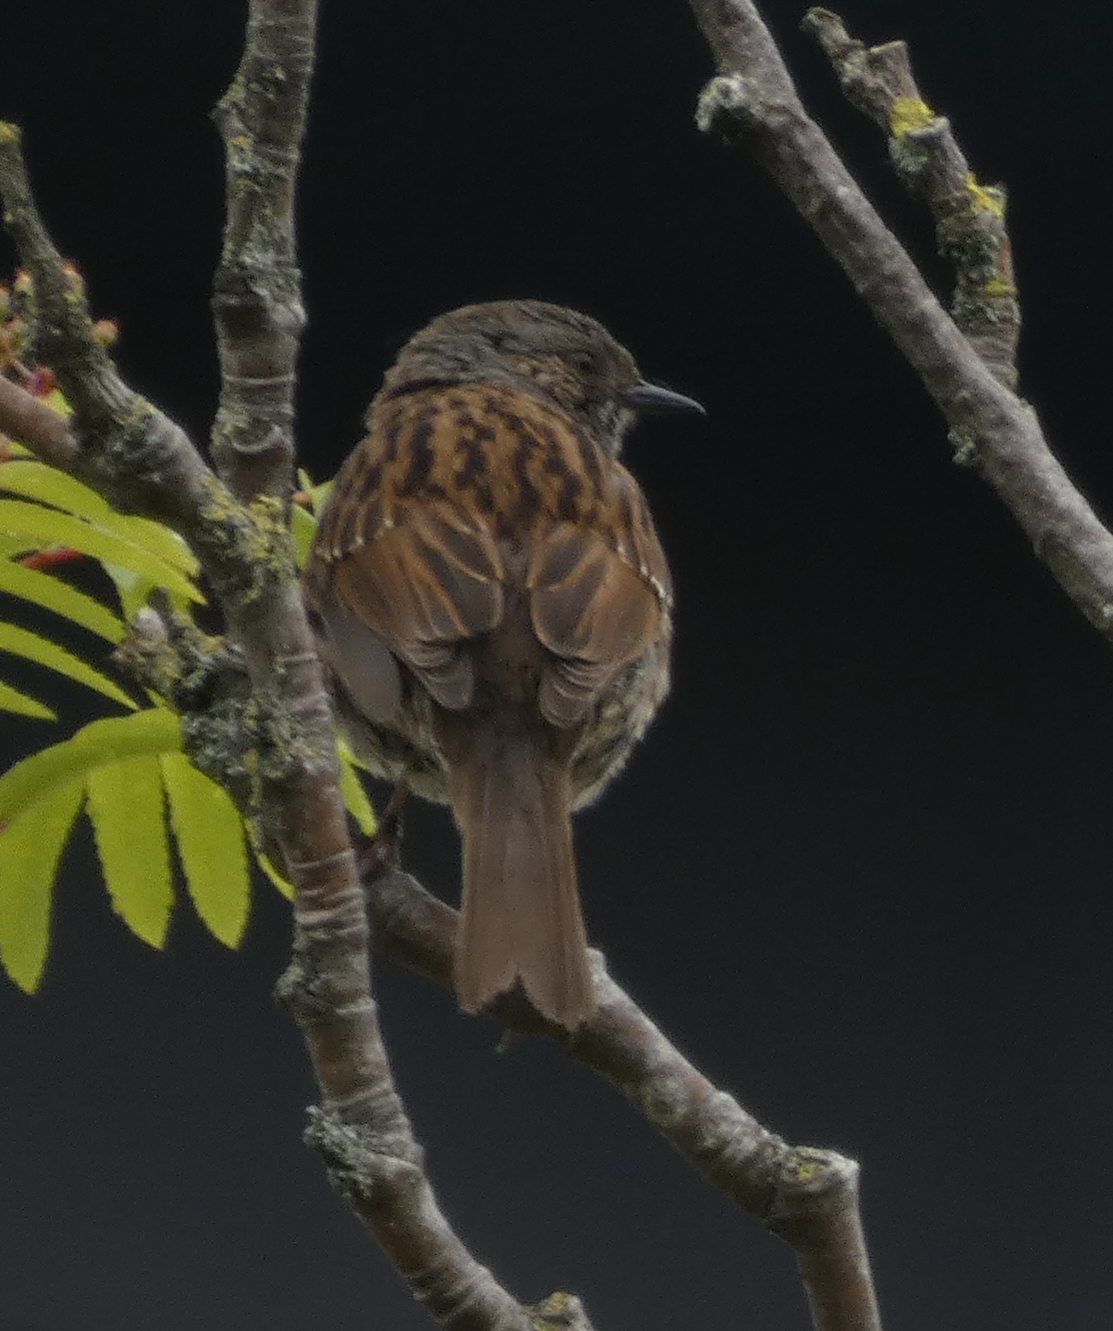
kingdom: Animalia
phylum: Chordata
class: Aves
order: Passeriformes
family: Prunellidae
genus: Prunella
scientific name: Prunella modularis
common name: Dunnock
